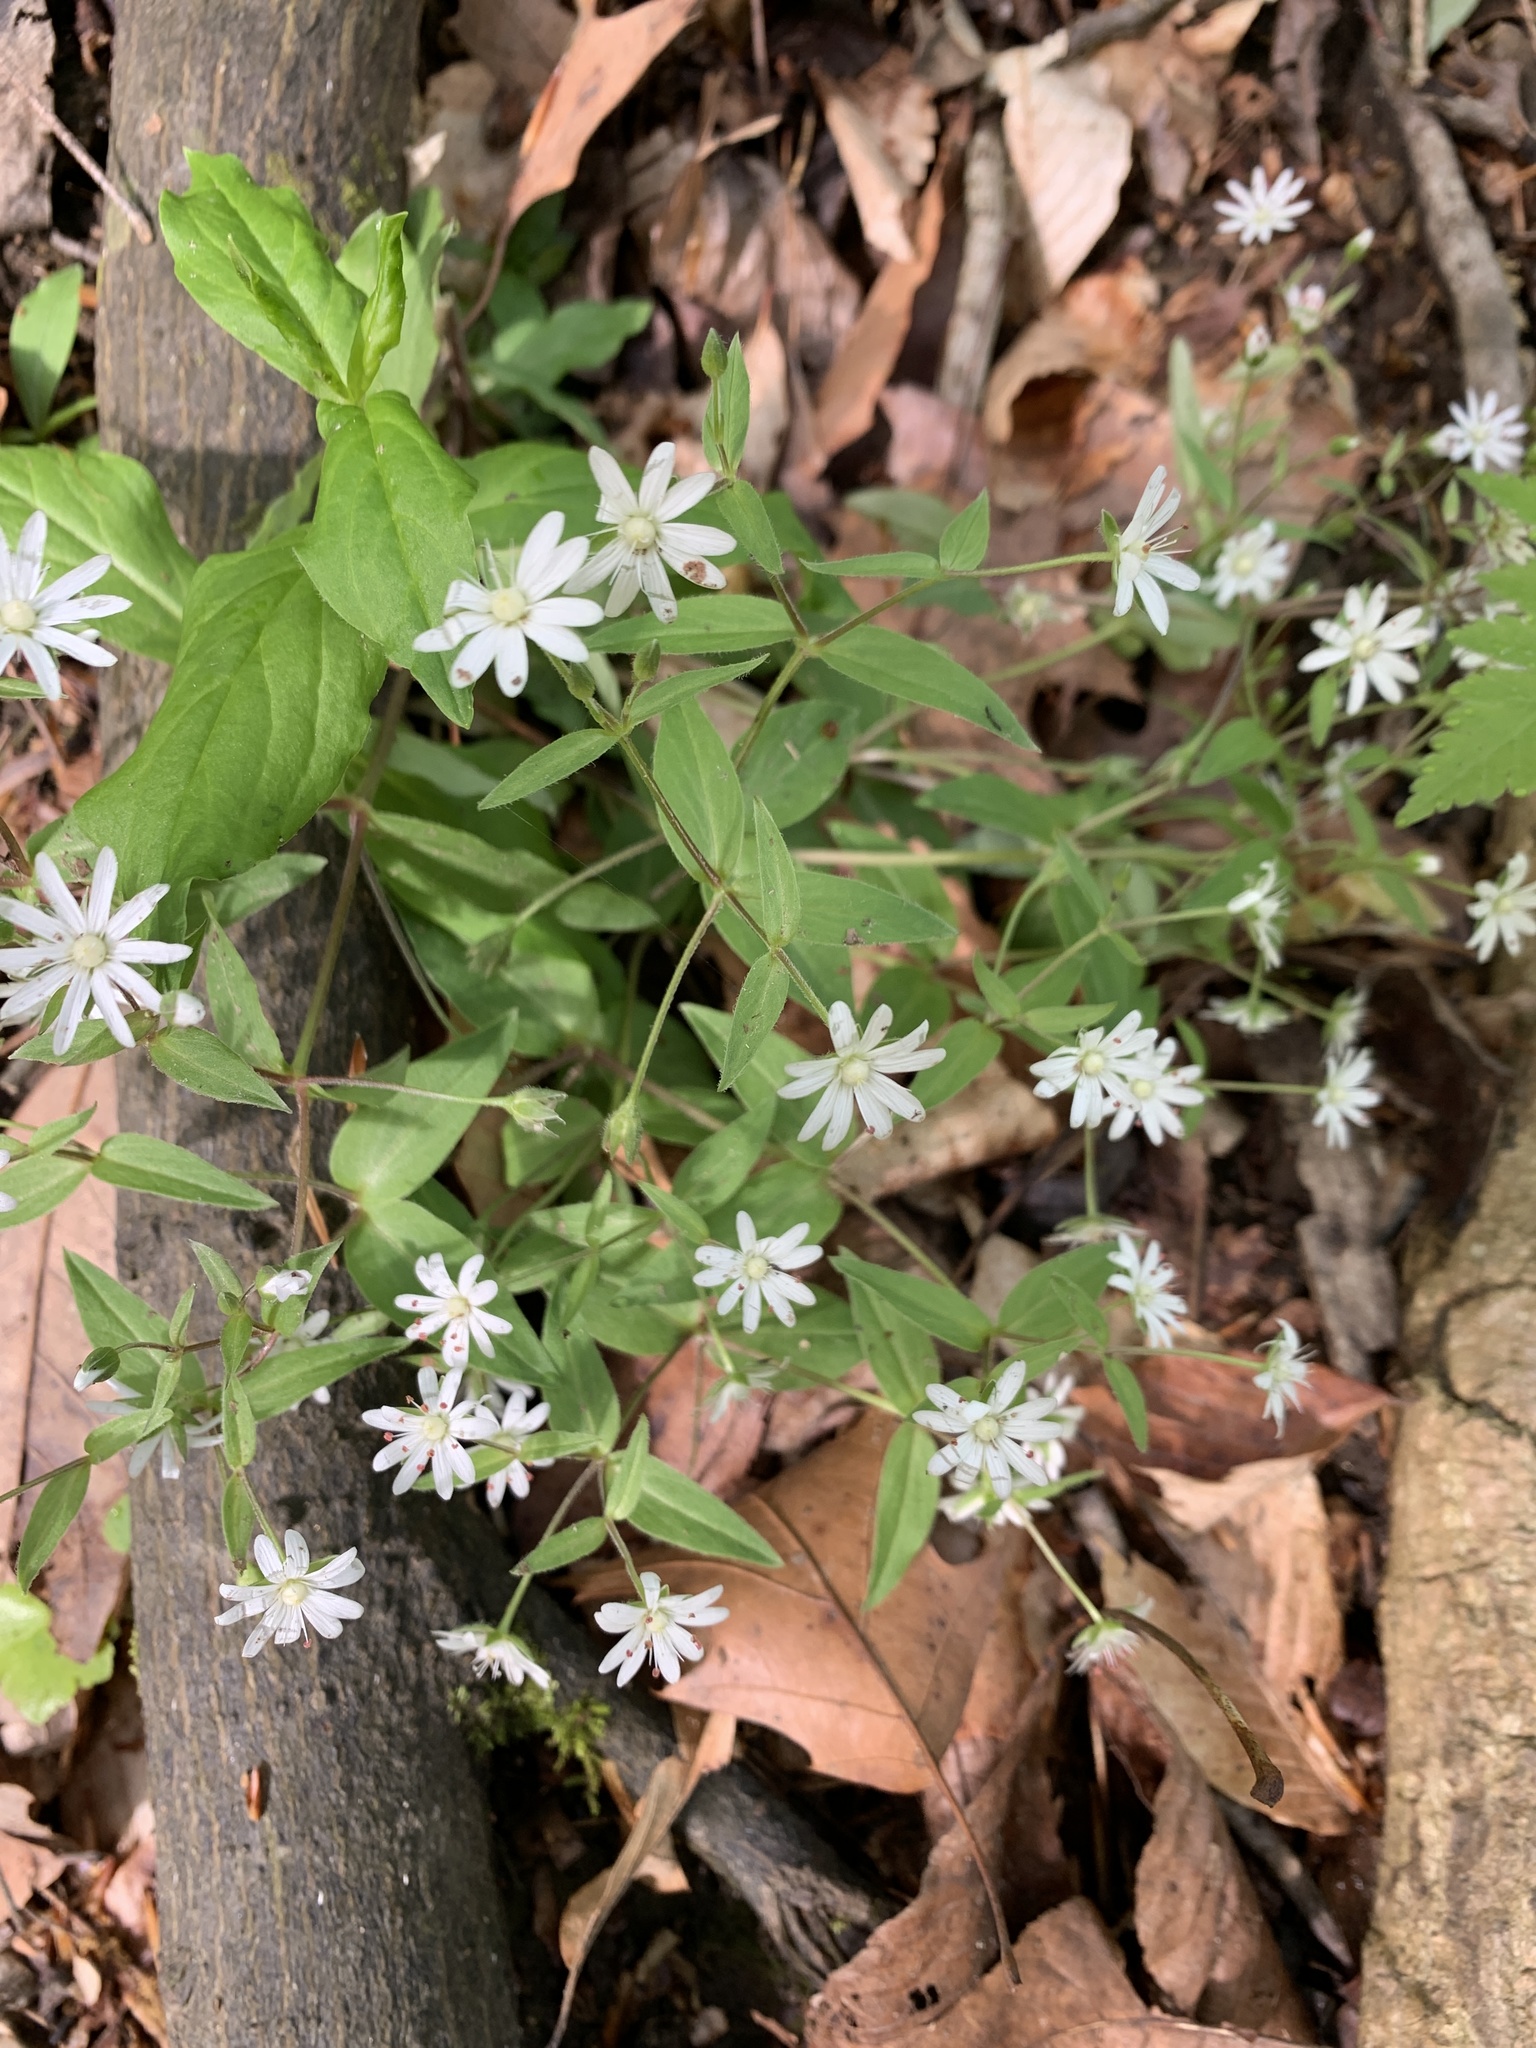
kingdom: Plantae
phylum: Tracheophyta
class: Magnoliopsida
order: Caryophyllales
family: Caryophyllaceae
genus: Stellaria
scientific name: Stellaria pubera
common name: Star chickweed
